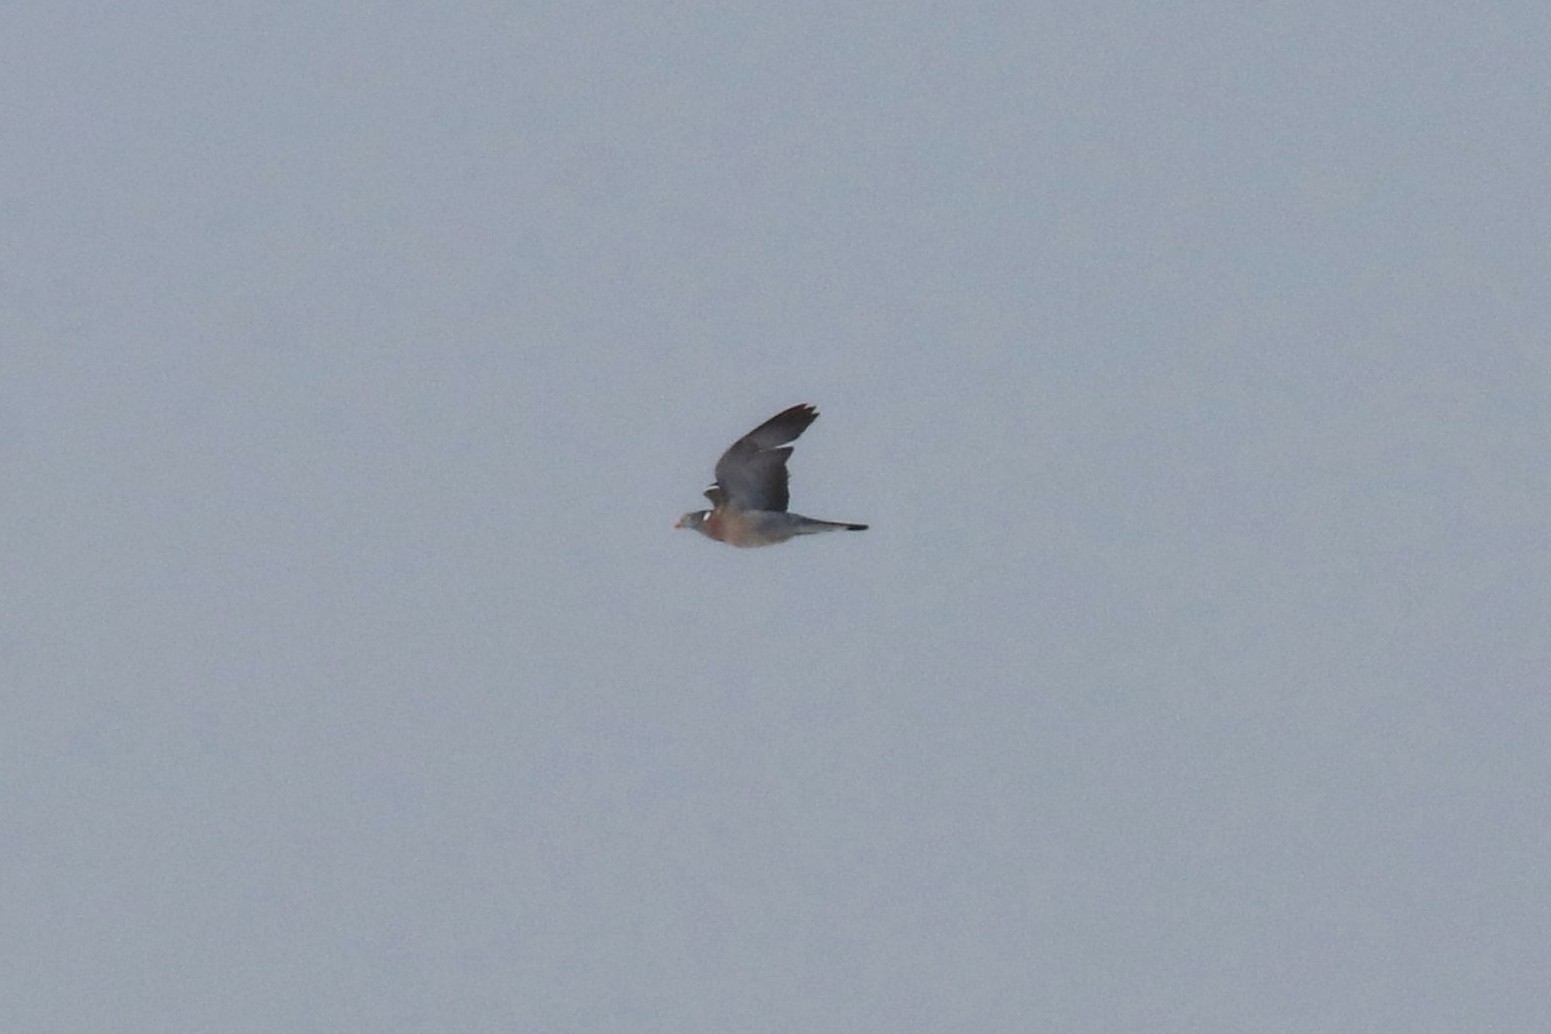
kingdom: Animalia
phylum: Chordata
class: Aves
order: Columbiformes
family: Columbidae
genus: Columba
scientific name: Columba palumbus
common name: Common wood pigeon
